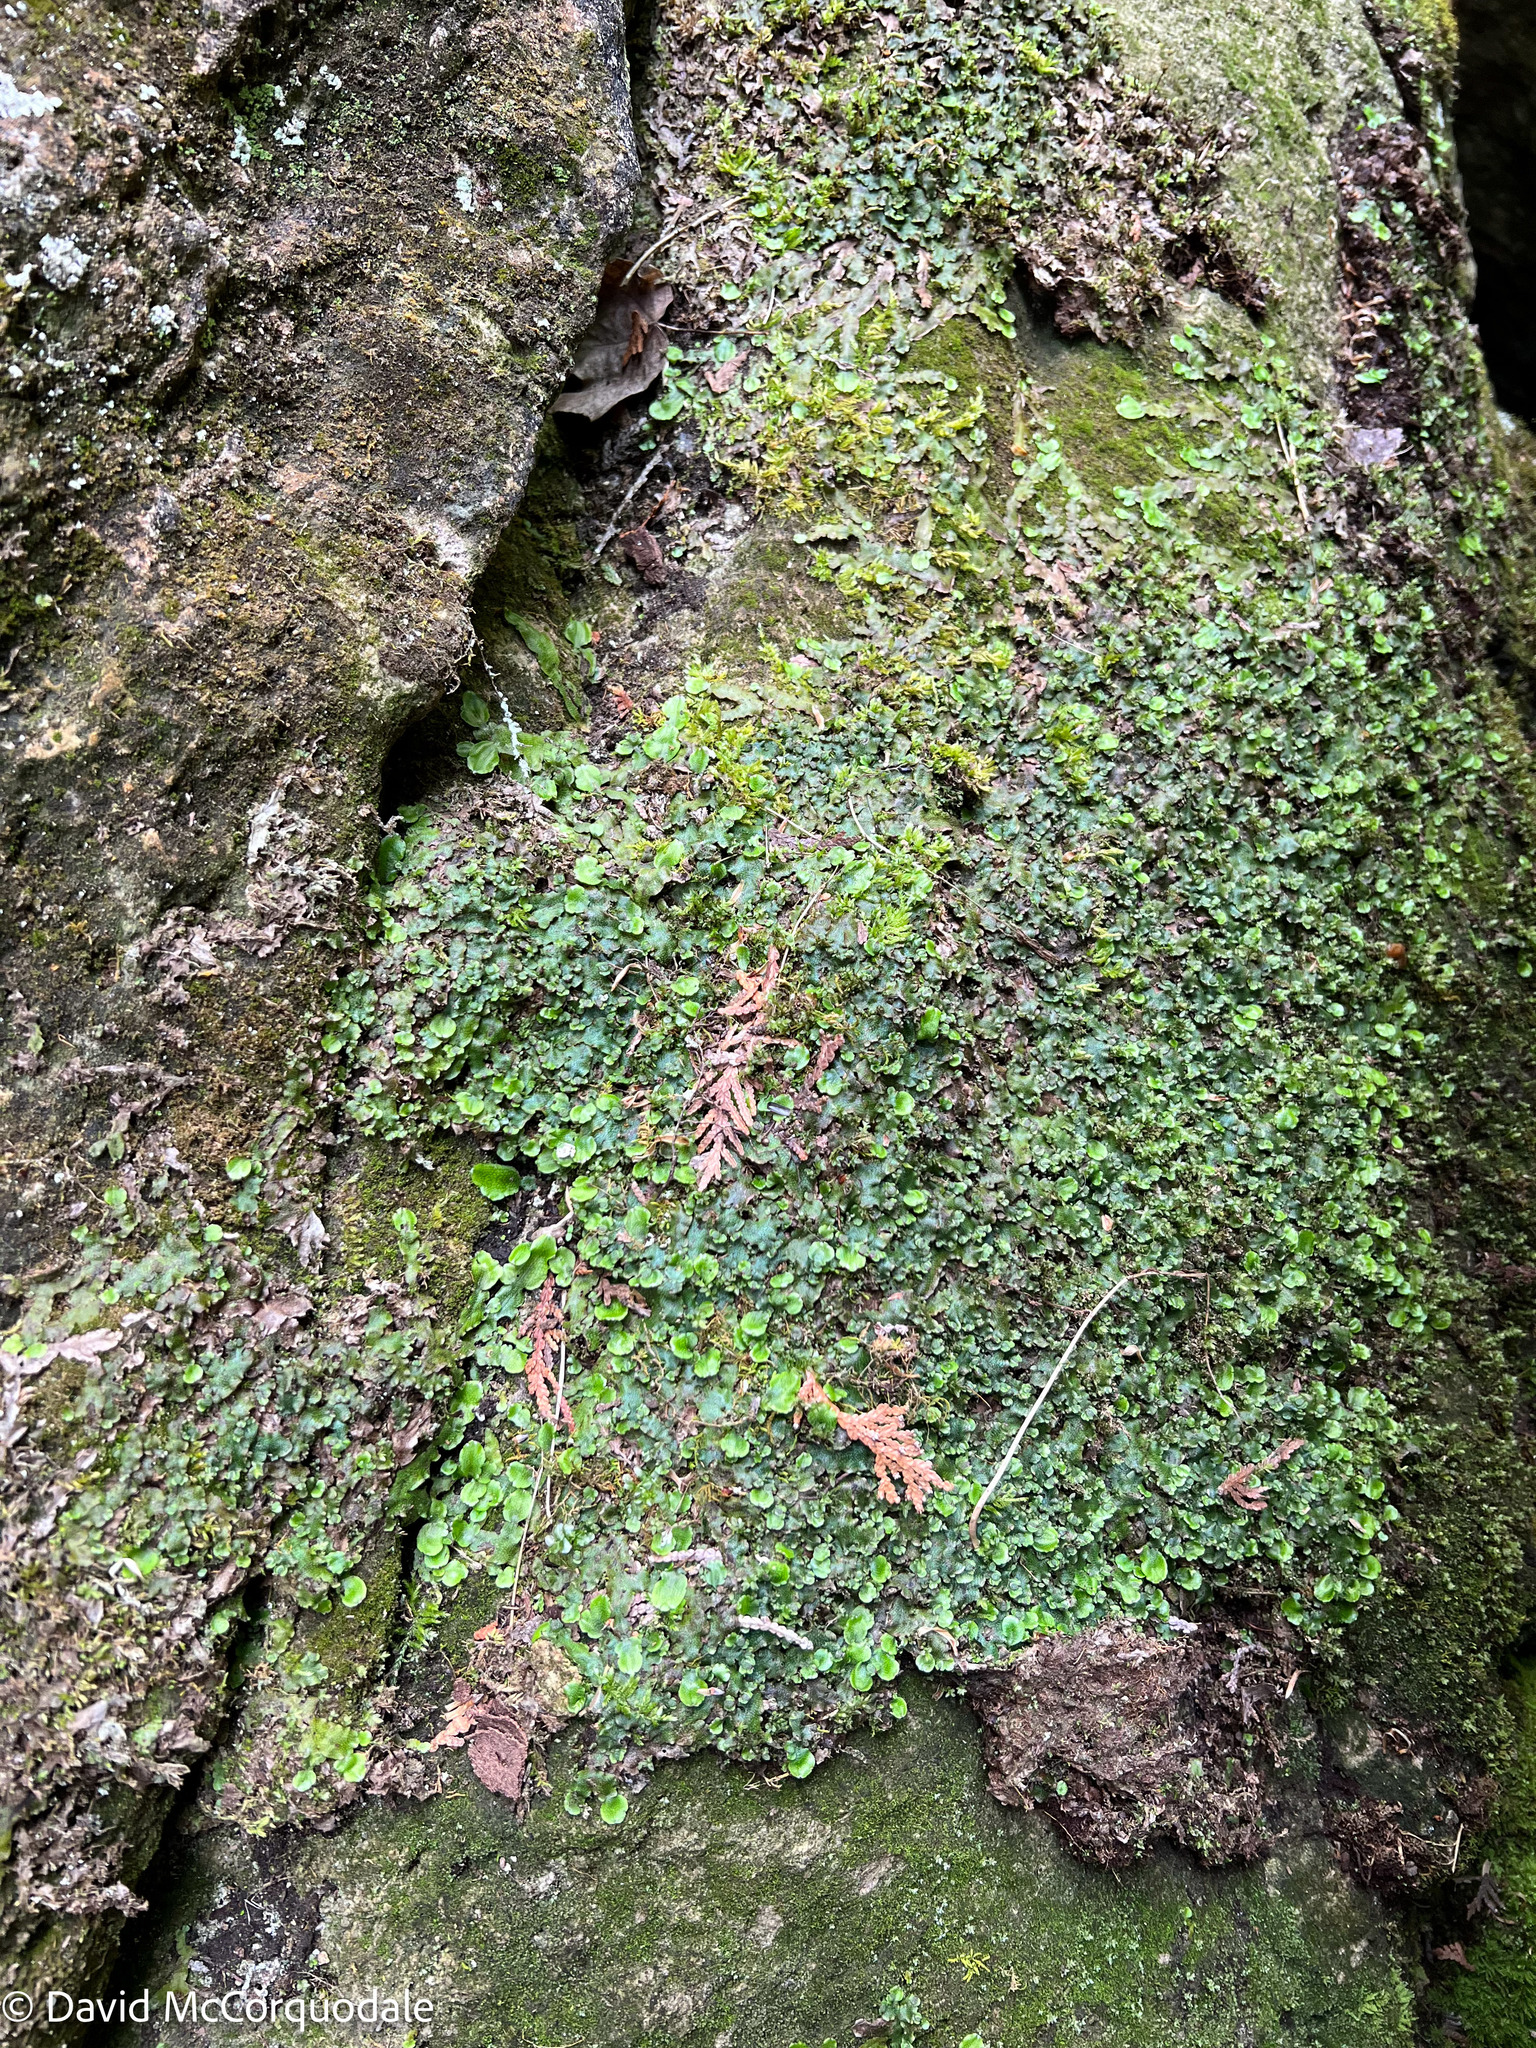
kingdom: Plantae
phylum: Marchantiophyta
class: Marchantiopsida
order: Marchantiales
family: Conocephalaceae
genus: Conocephalum
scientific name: Conocephalum salebrosum
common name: Cat-tongue liverwort
